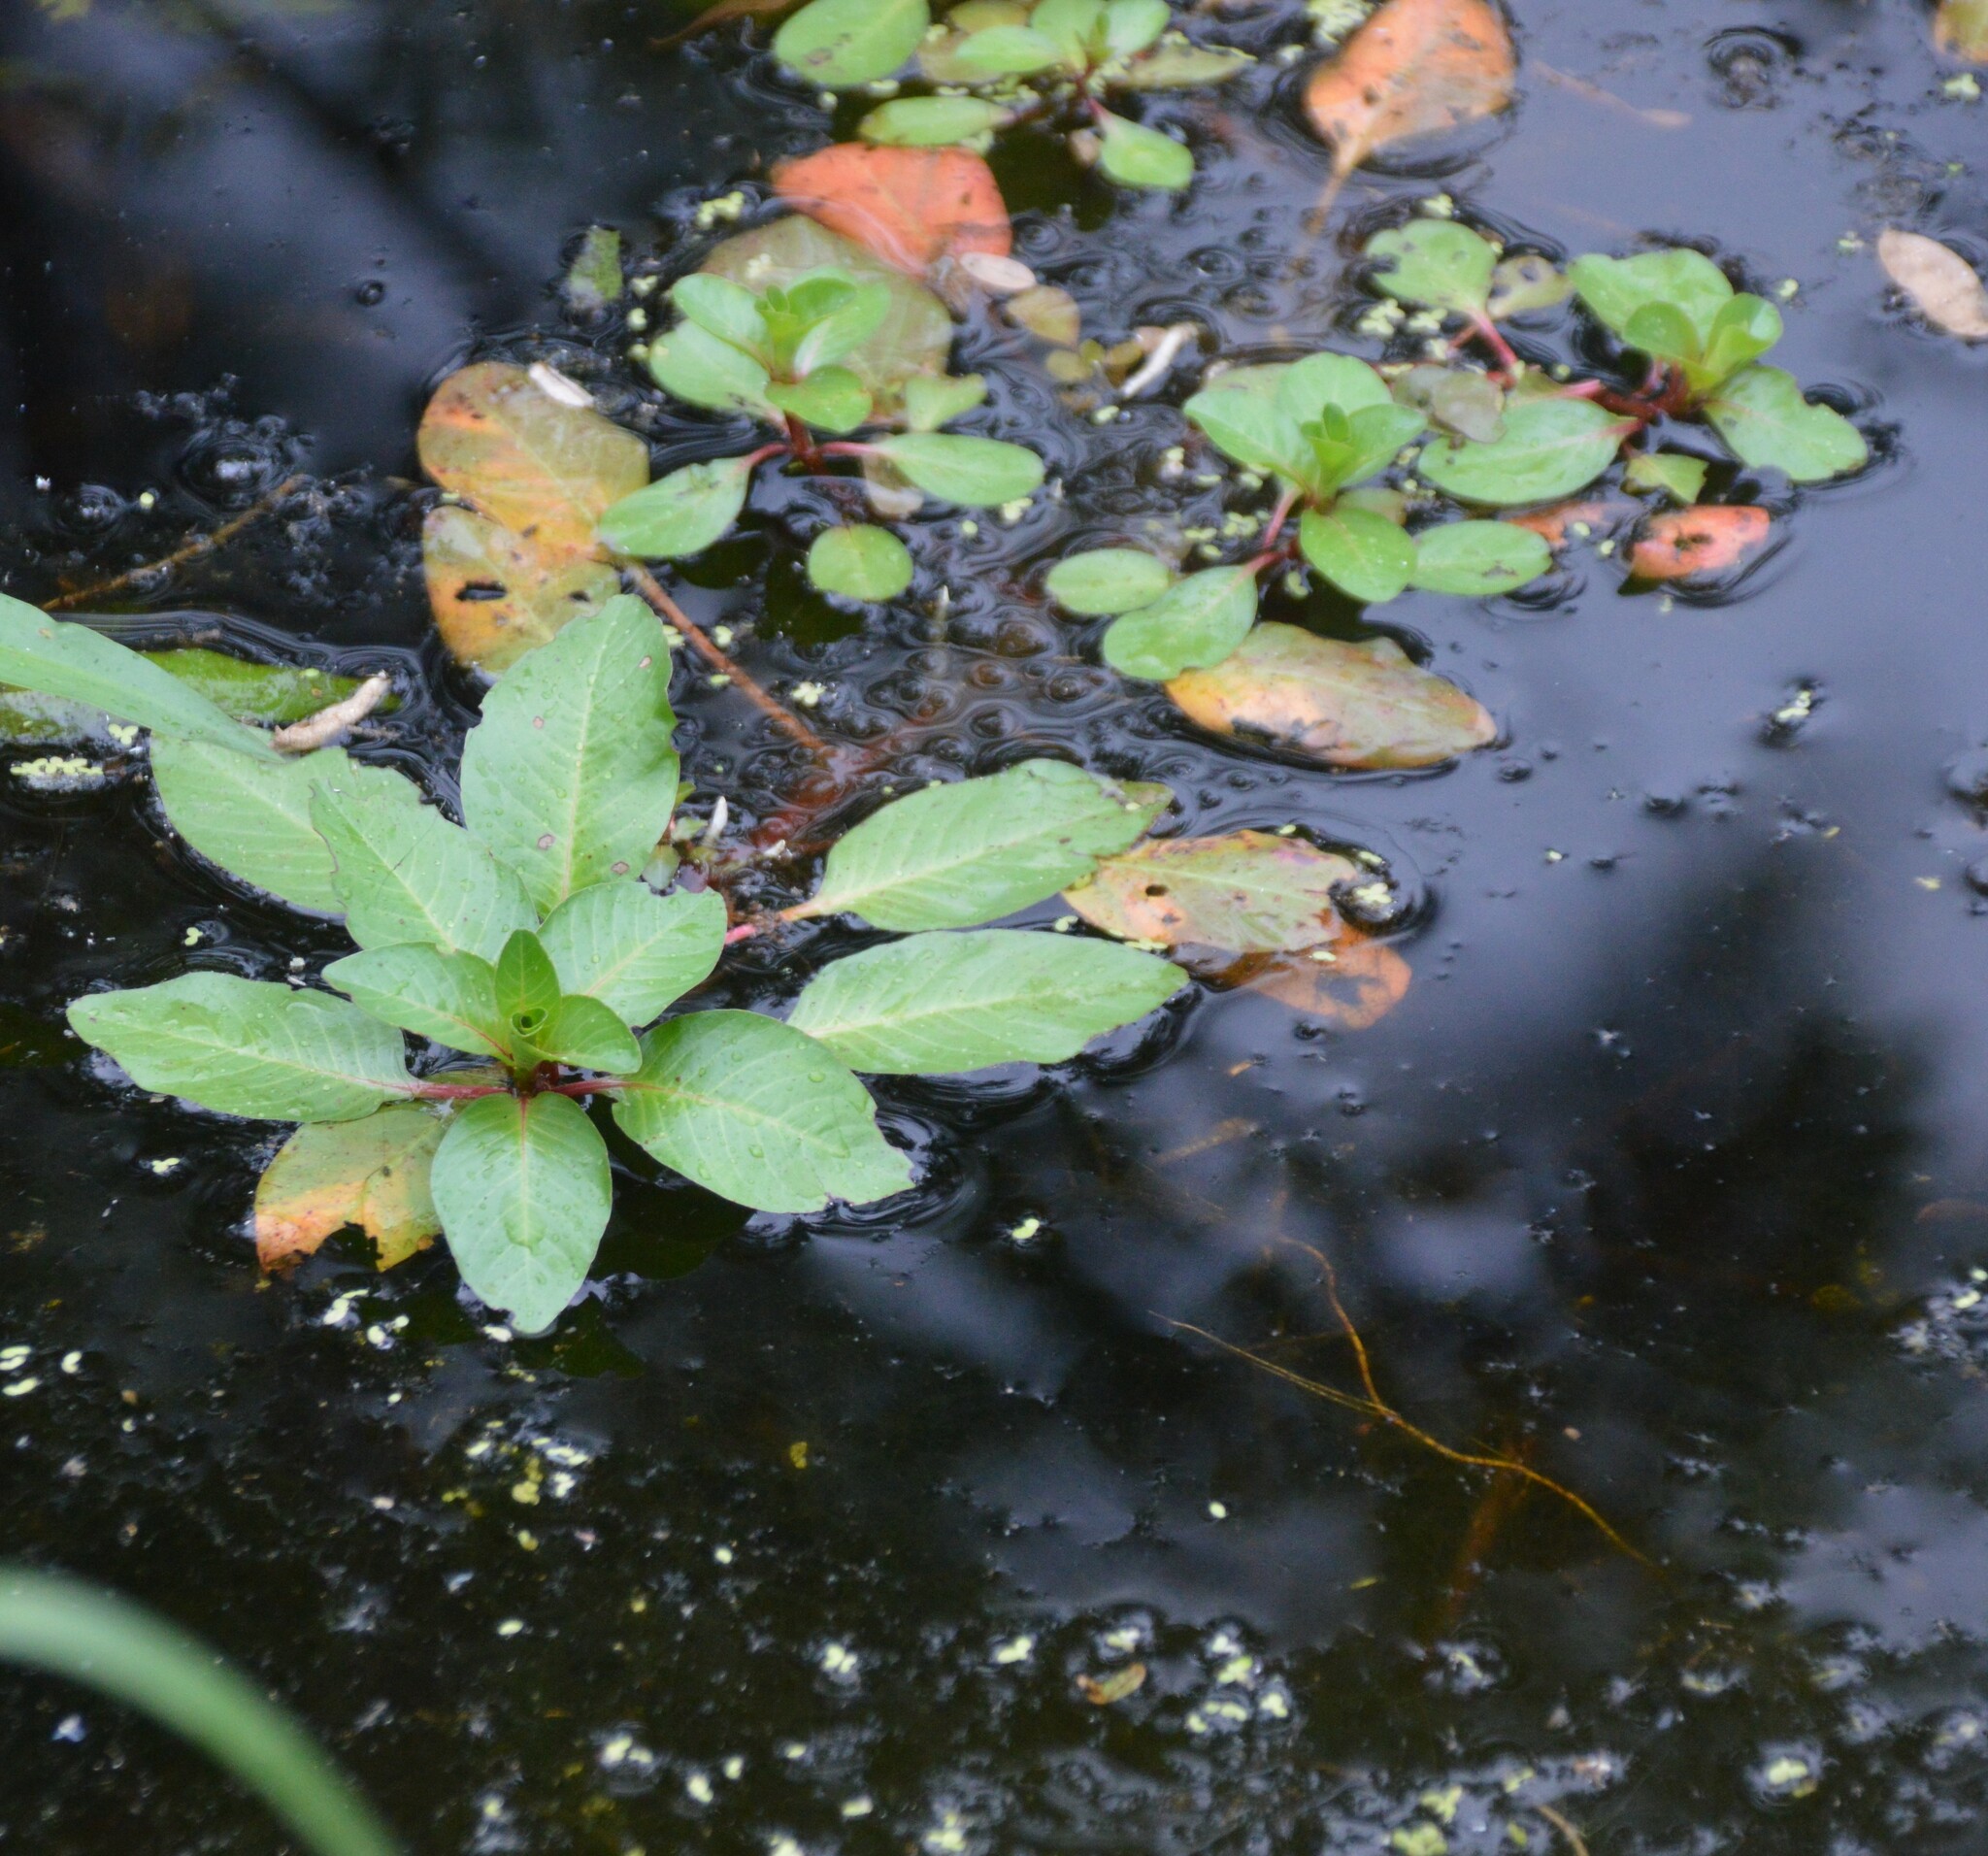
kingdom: Plantae
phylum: Tracheophyta
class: Magnoliopsida
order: Myrtales
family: Onagraceae
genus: Ludwigia
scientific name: Ludwigia peploides
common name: Floating primrose-willow
